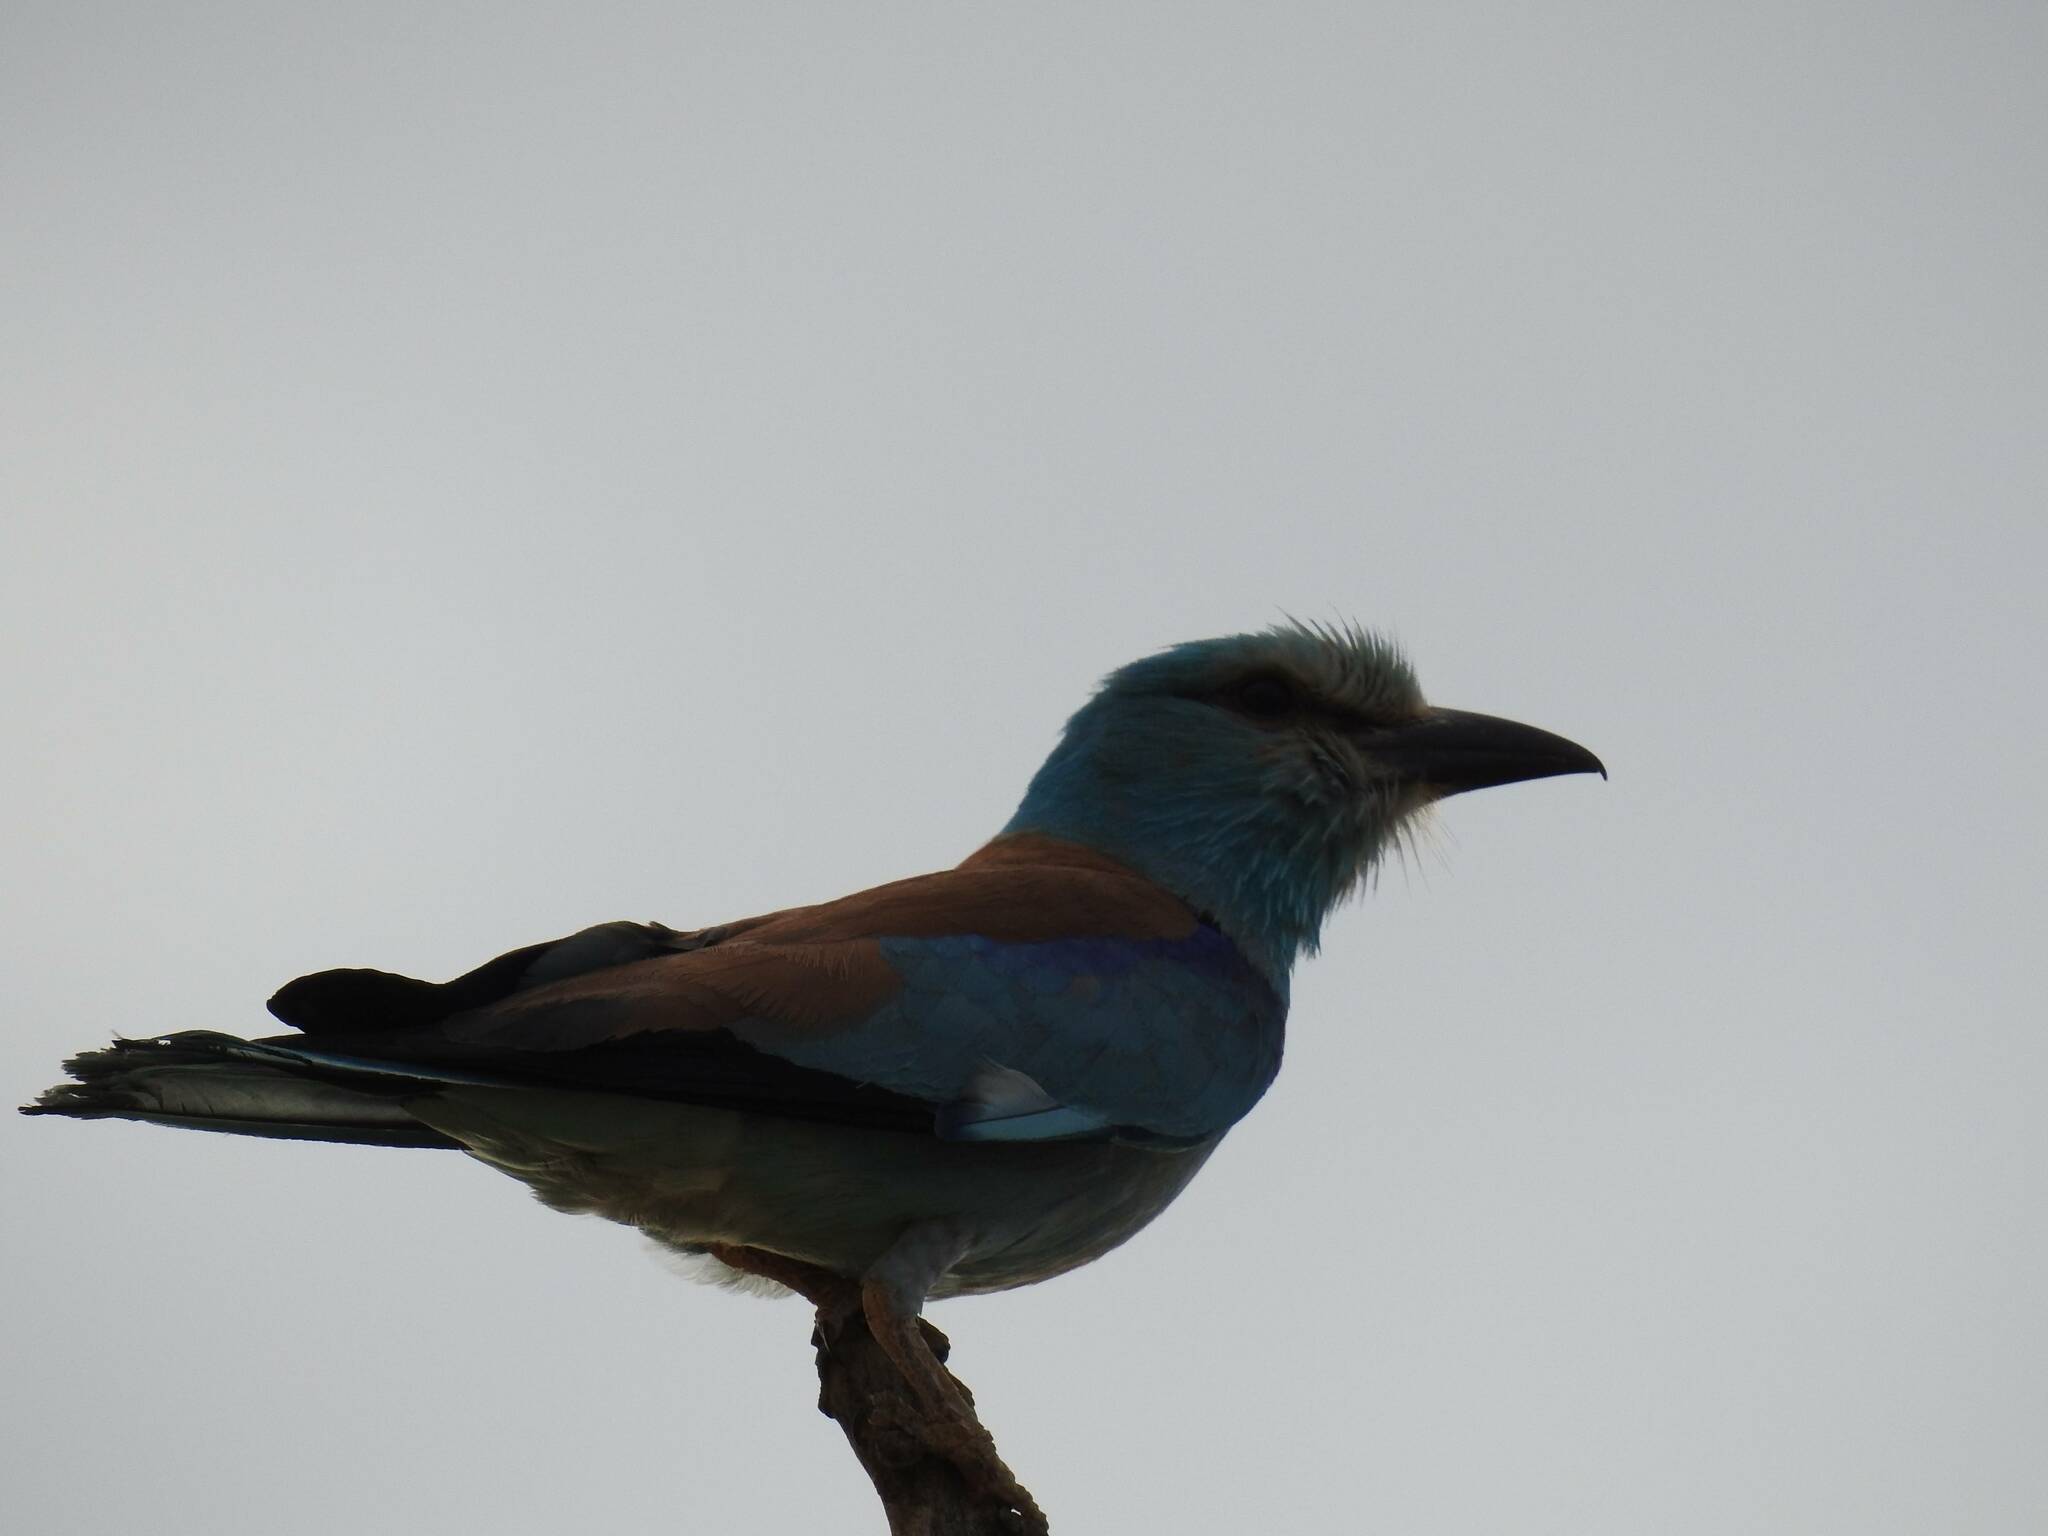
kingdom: Animalia
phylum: Chordata
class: Aves
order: Coraciiformes
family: Coraciidae
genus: Coracias
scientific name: Coracias garrulus
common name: European roller
